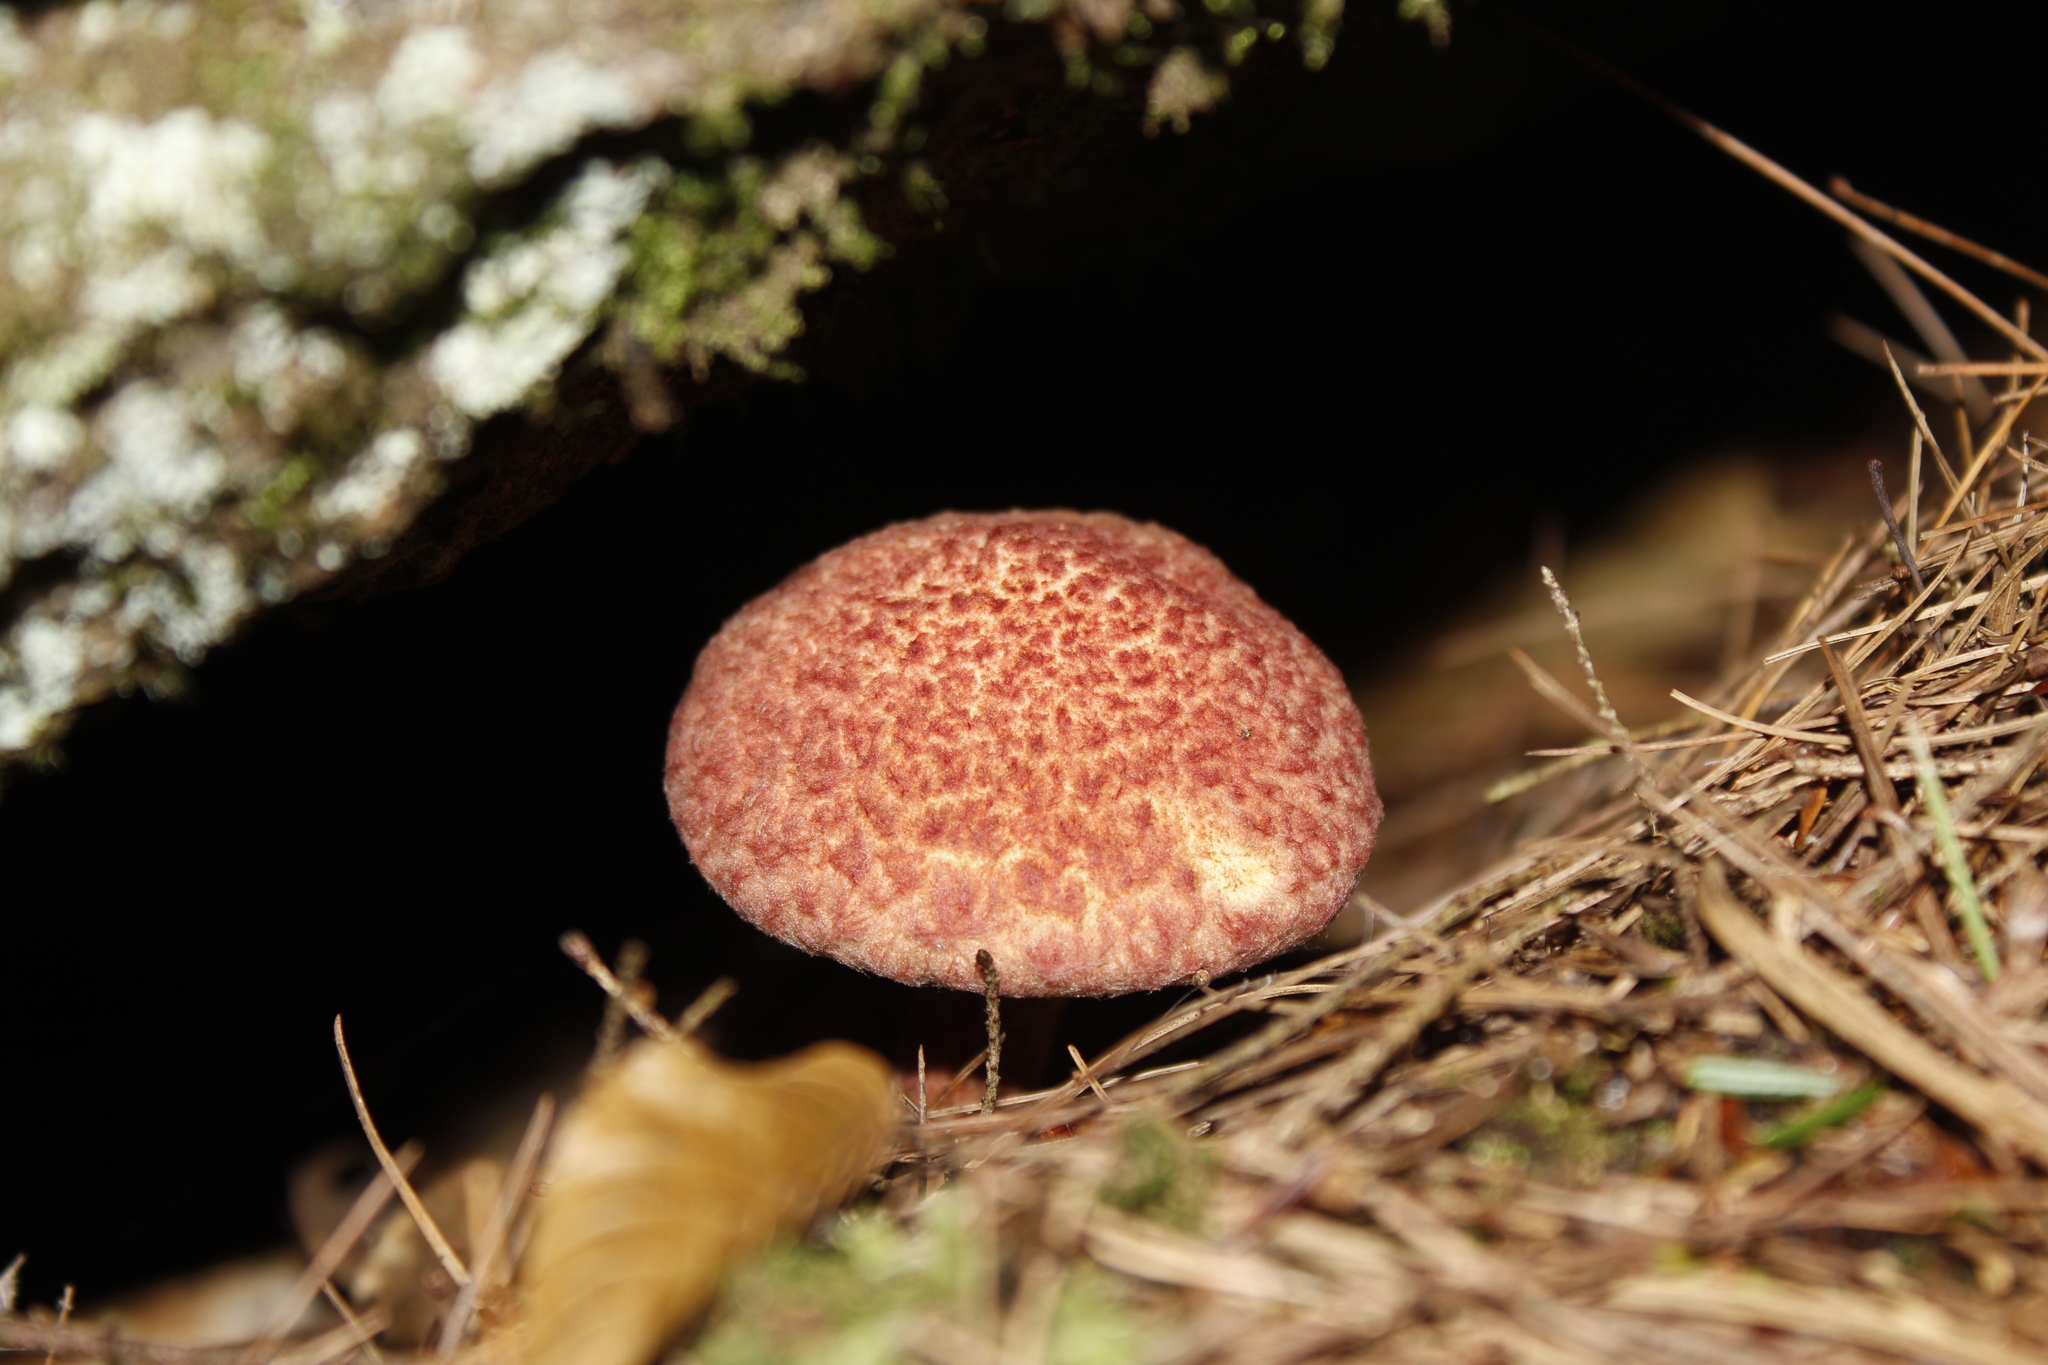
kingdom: Fungi
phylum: Basidiomycota
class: Agaricomycetes
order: Boletales
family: Suillaceae
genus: Suillus
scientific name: Suillus spraguei
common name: Painted suillus
